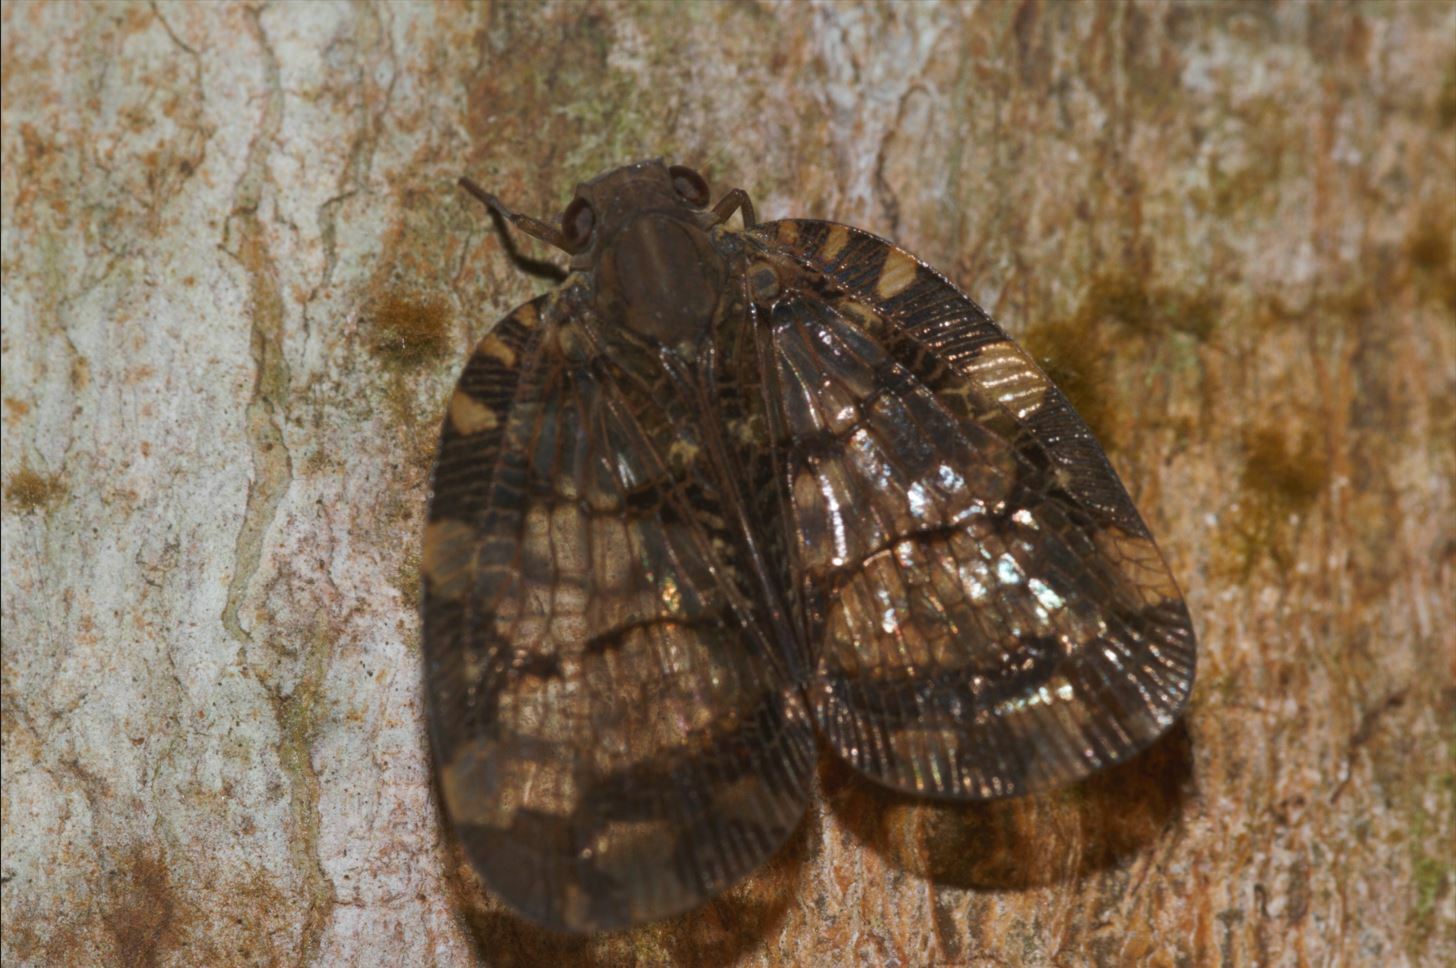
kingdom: Animalia
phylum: Arthropoda
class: Insecta
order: Hemiptera
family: Nogodinidae
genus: Nogodina
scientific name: Nogodina reticulata
